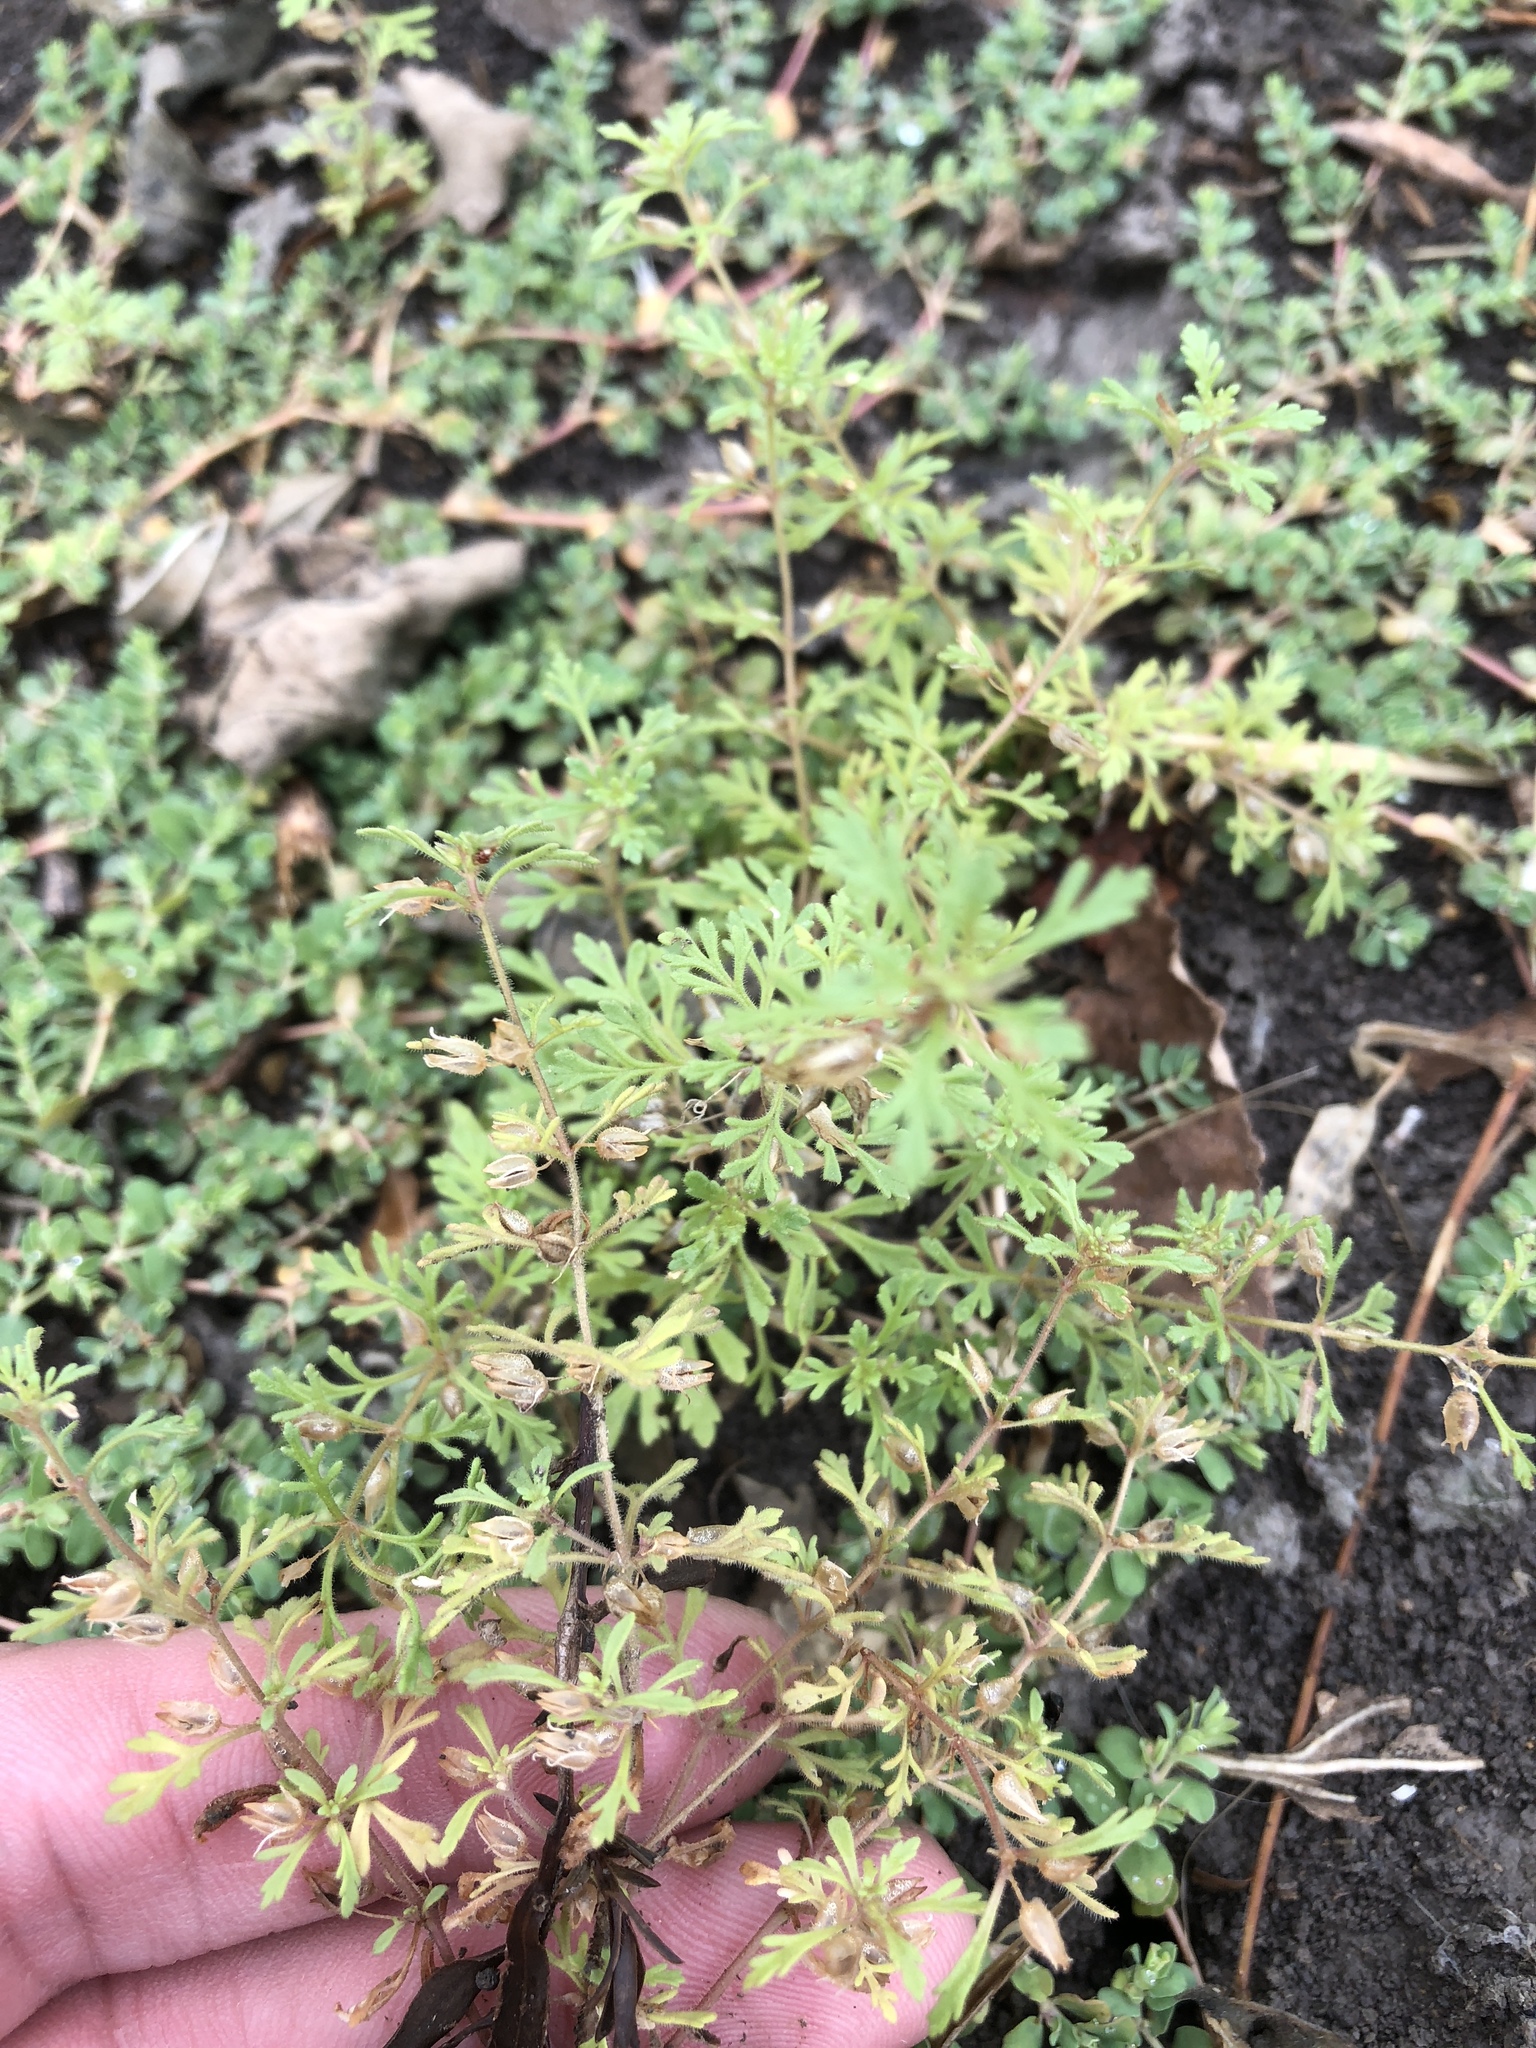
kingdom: Plantae
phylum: Tracheophyta
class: Magnoliopsida
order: Lamiales
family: Plantaginaceae
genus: Leucospora
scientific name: Leucospora multifida
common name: Narrow-leaf paleseed
